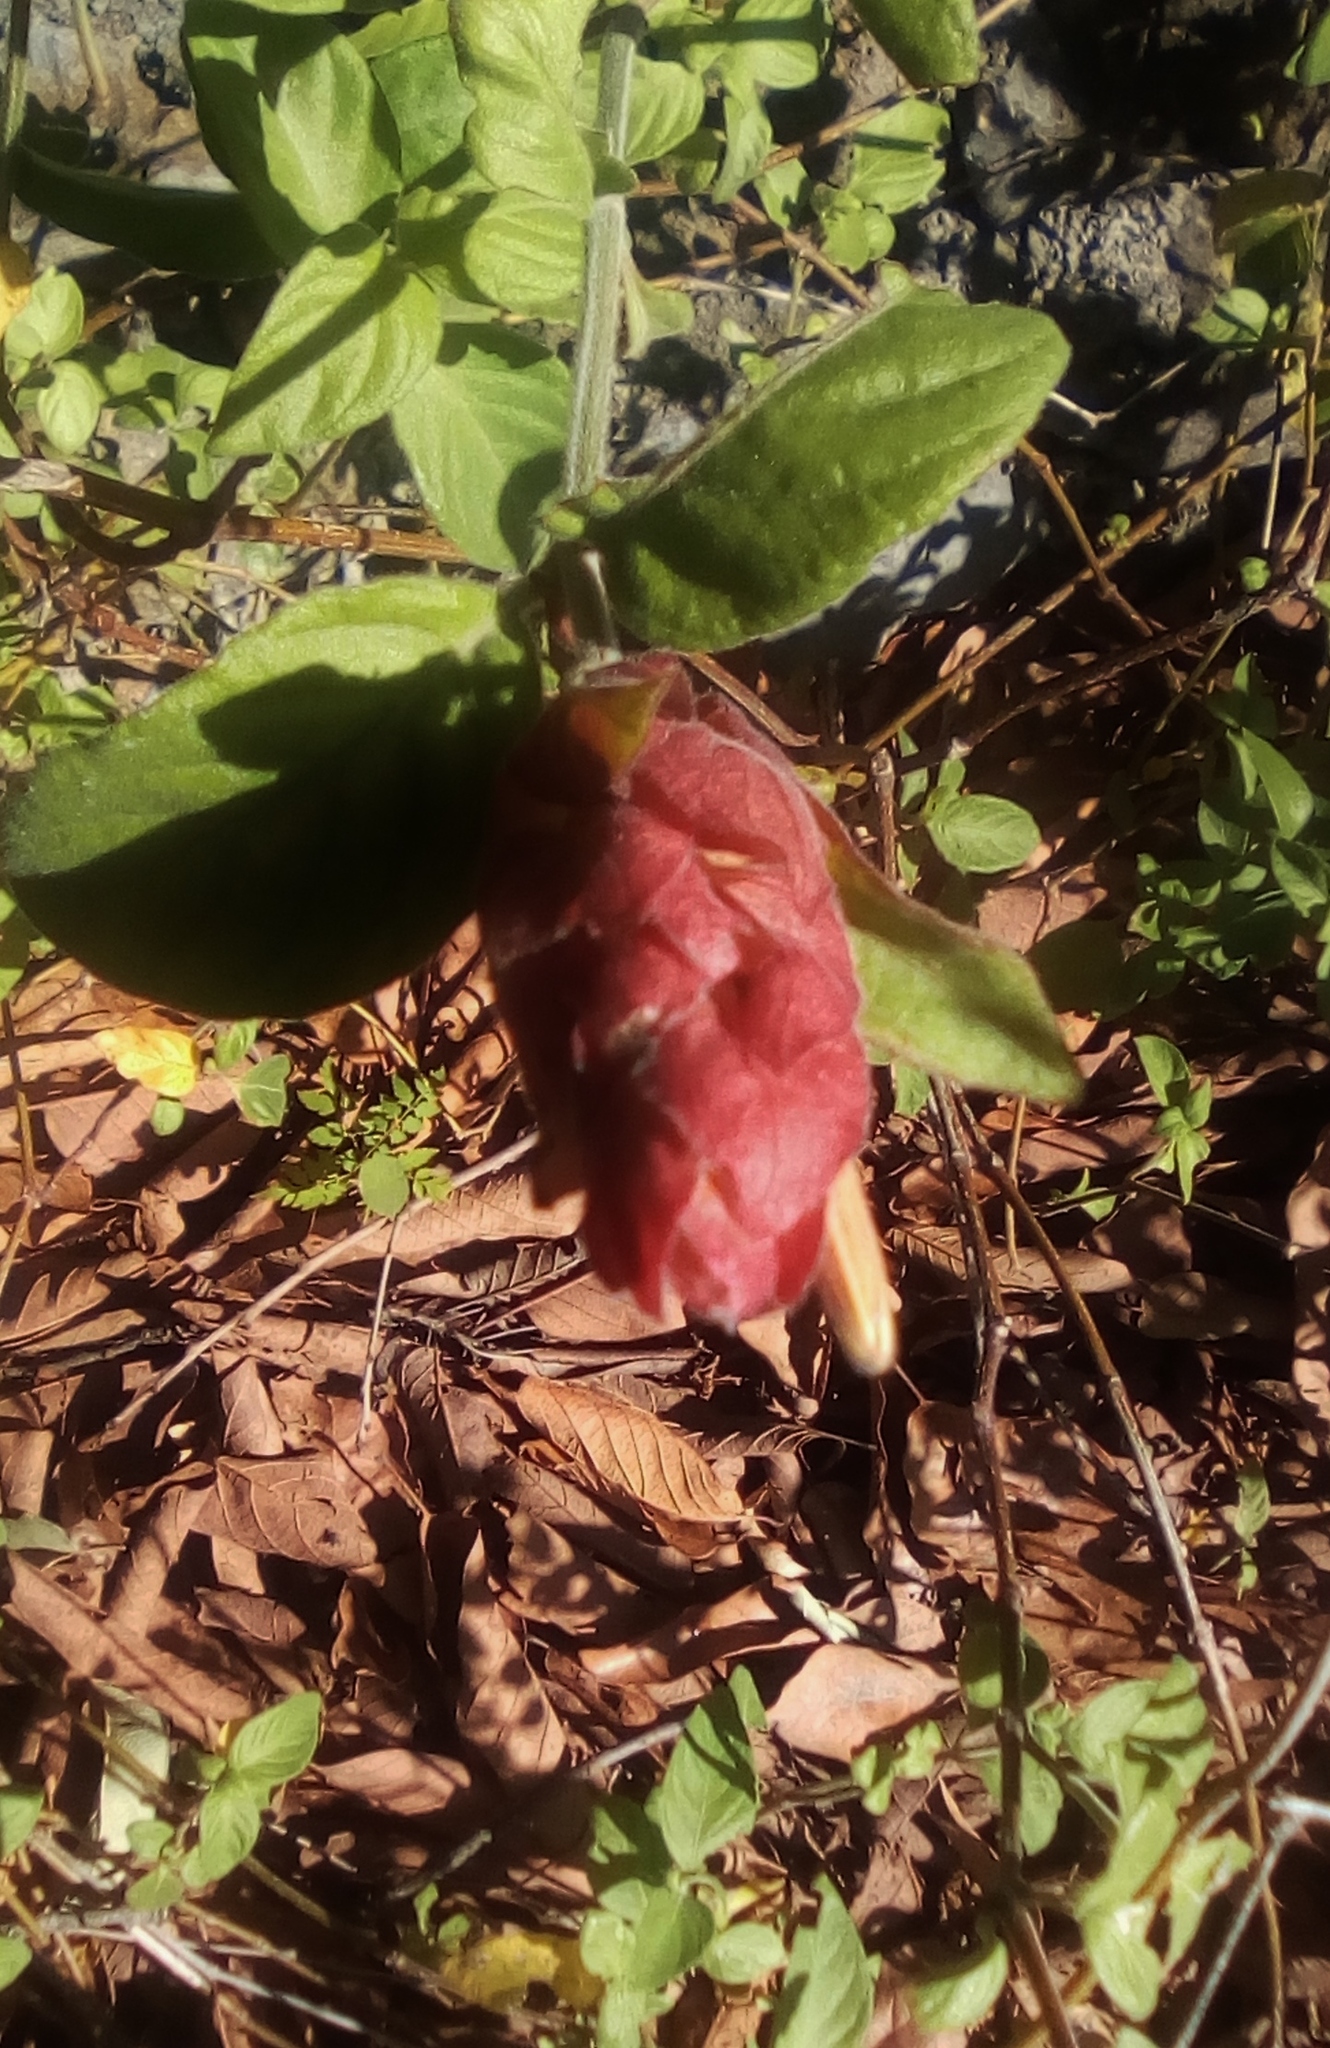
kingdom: Plantae
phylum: Tracheophyta
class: Magnoliopsida
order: Lamiales
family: Acanthaceae
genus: Justicia
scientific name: Justicia brandegeeana
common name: Shrimpplant
